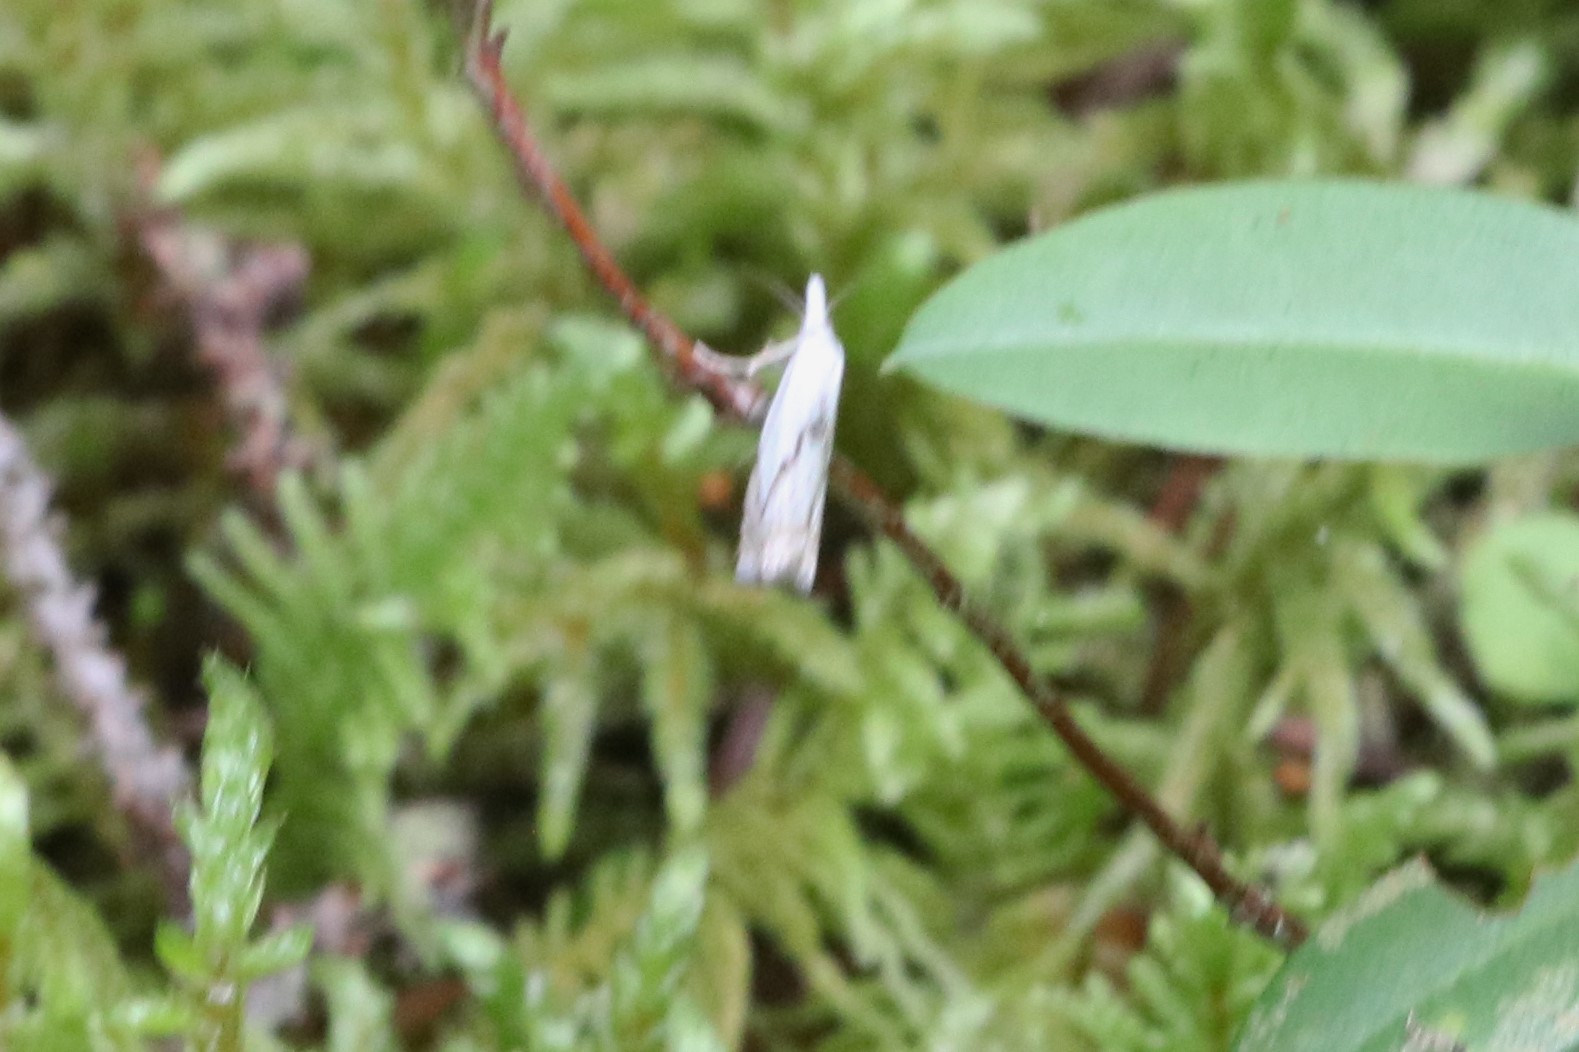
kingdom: Animalia
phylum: Arthropoda
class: Insecta
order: Lepidoptera
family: Crambidae
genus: Crambus
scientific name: Crambus albellus
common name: Small white grass-veneer
